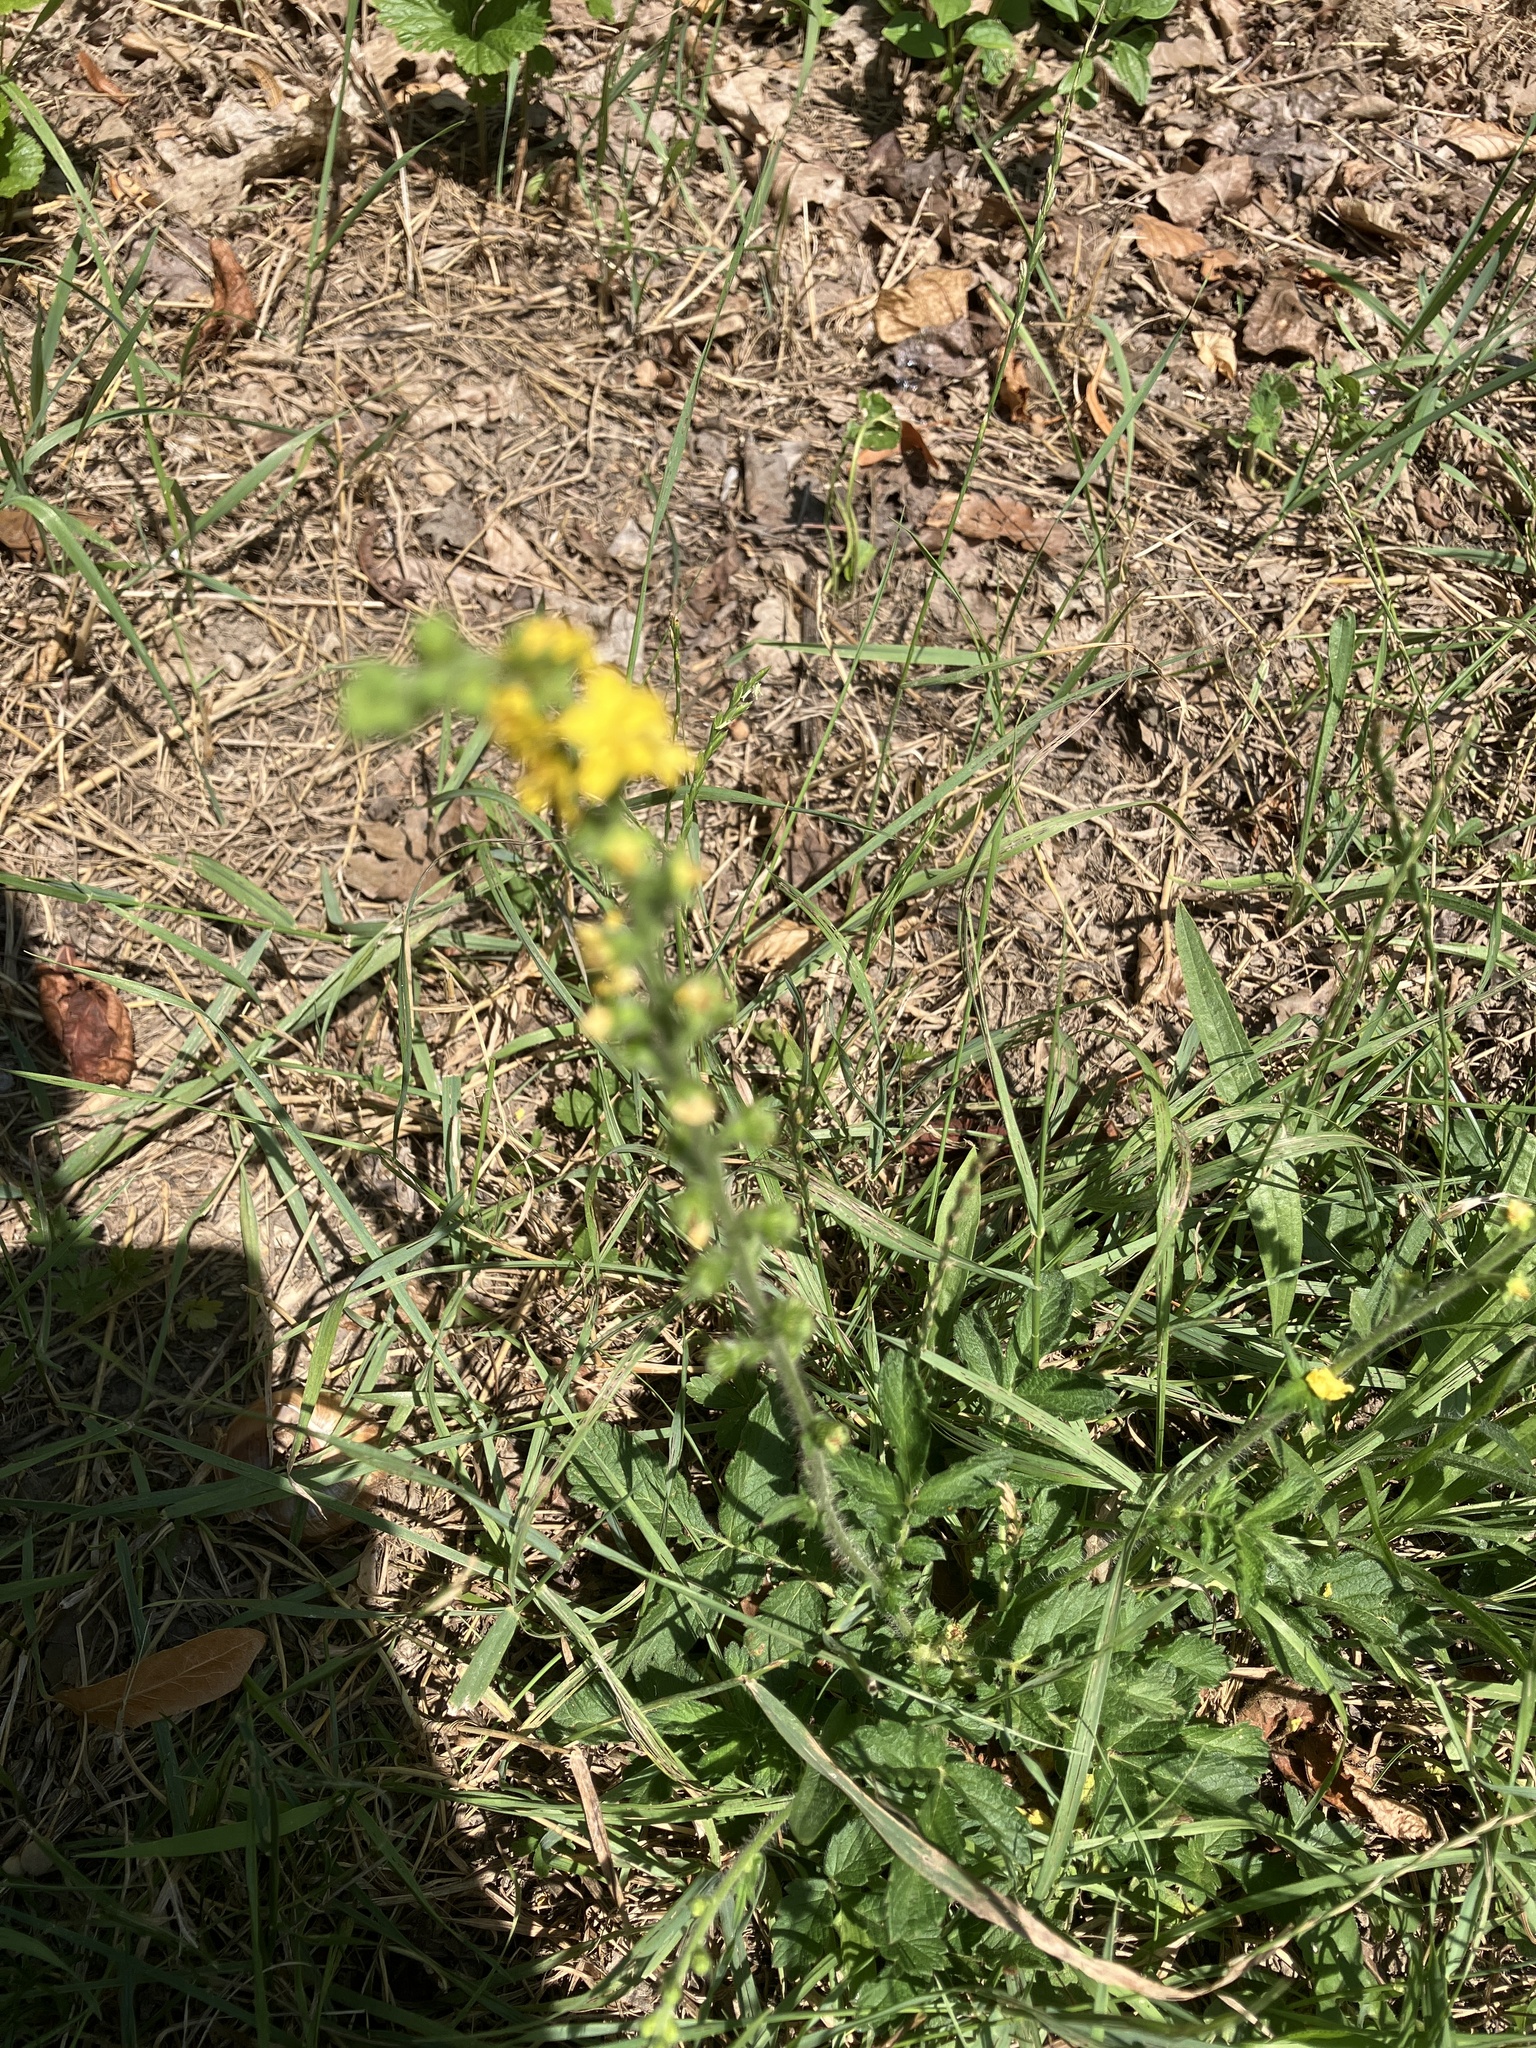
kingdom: Plantae
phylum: Tracheophyta
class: Magnoliopsida
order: Rosales
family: Rosaceae
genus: Agrimonia
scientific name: Agrimonia eupatoria
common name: Agrimony
